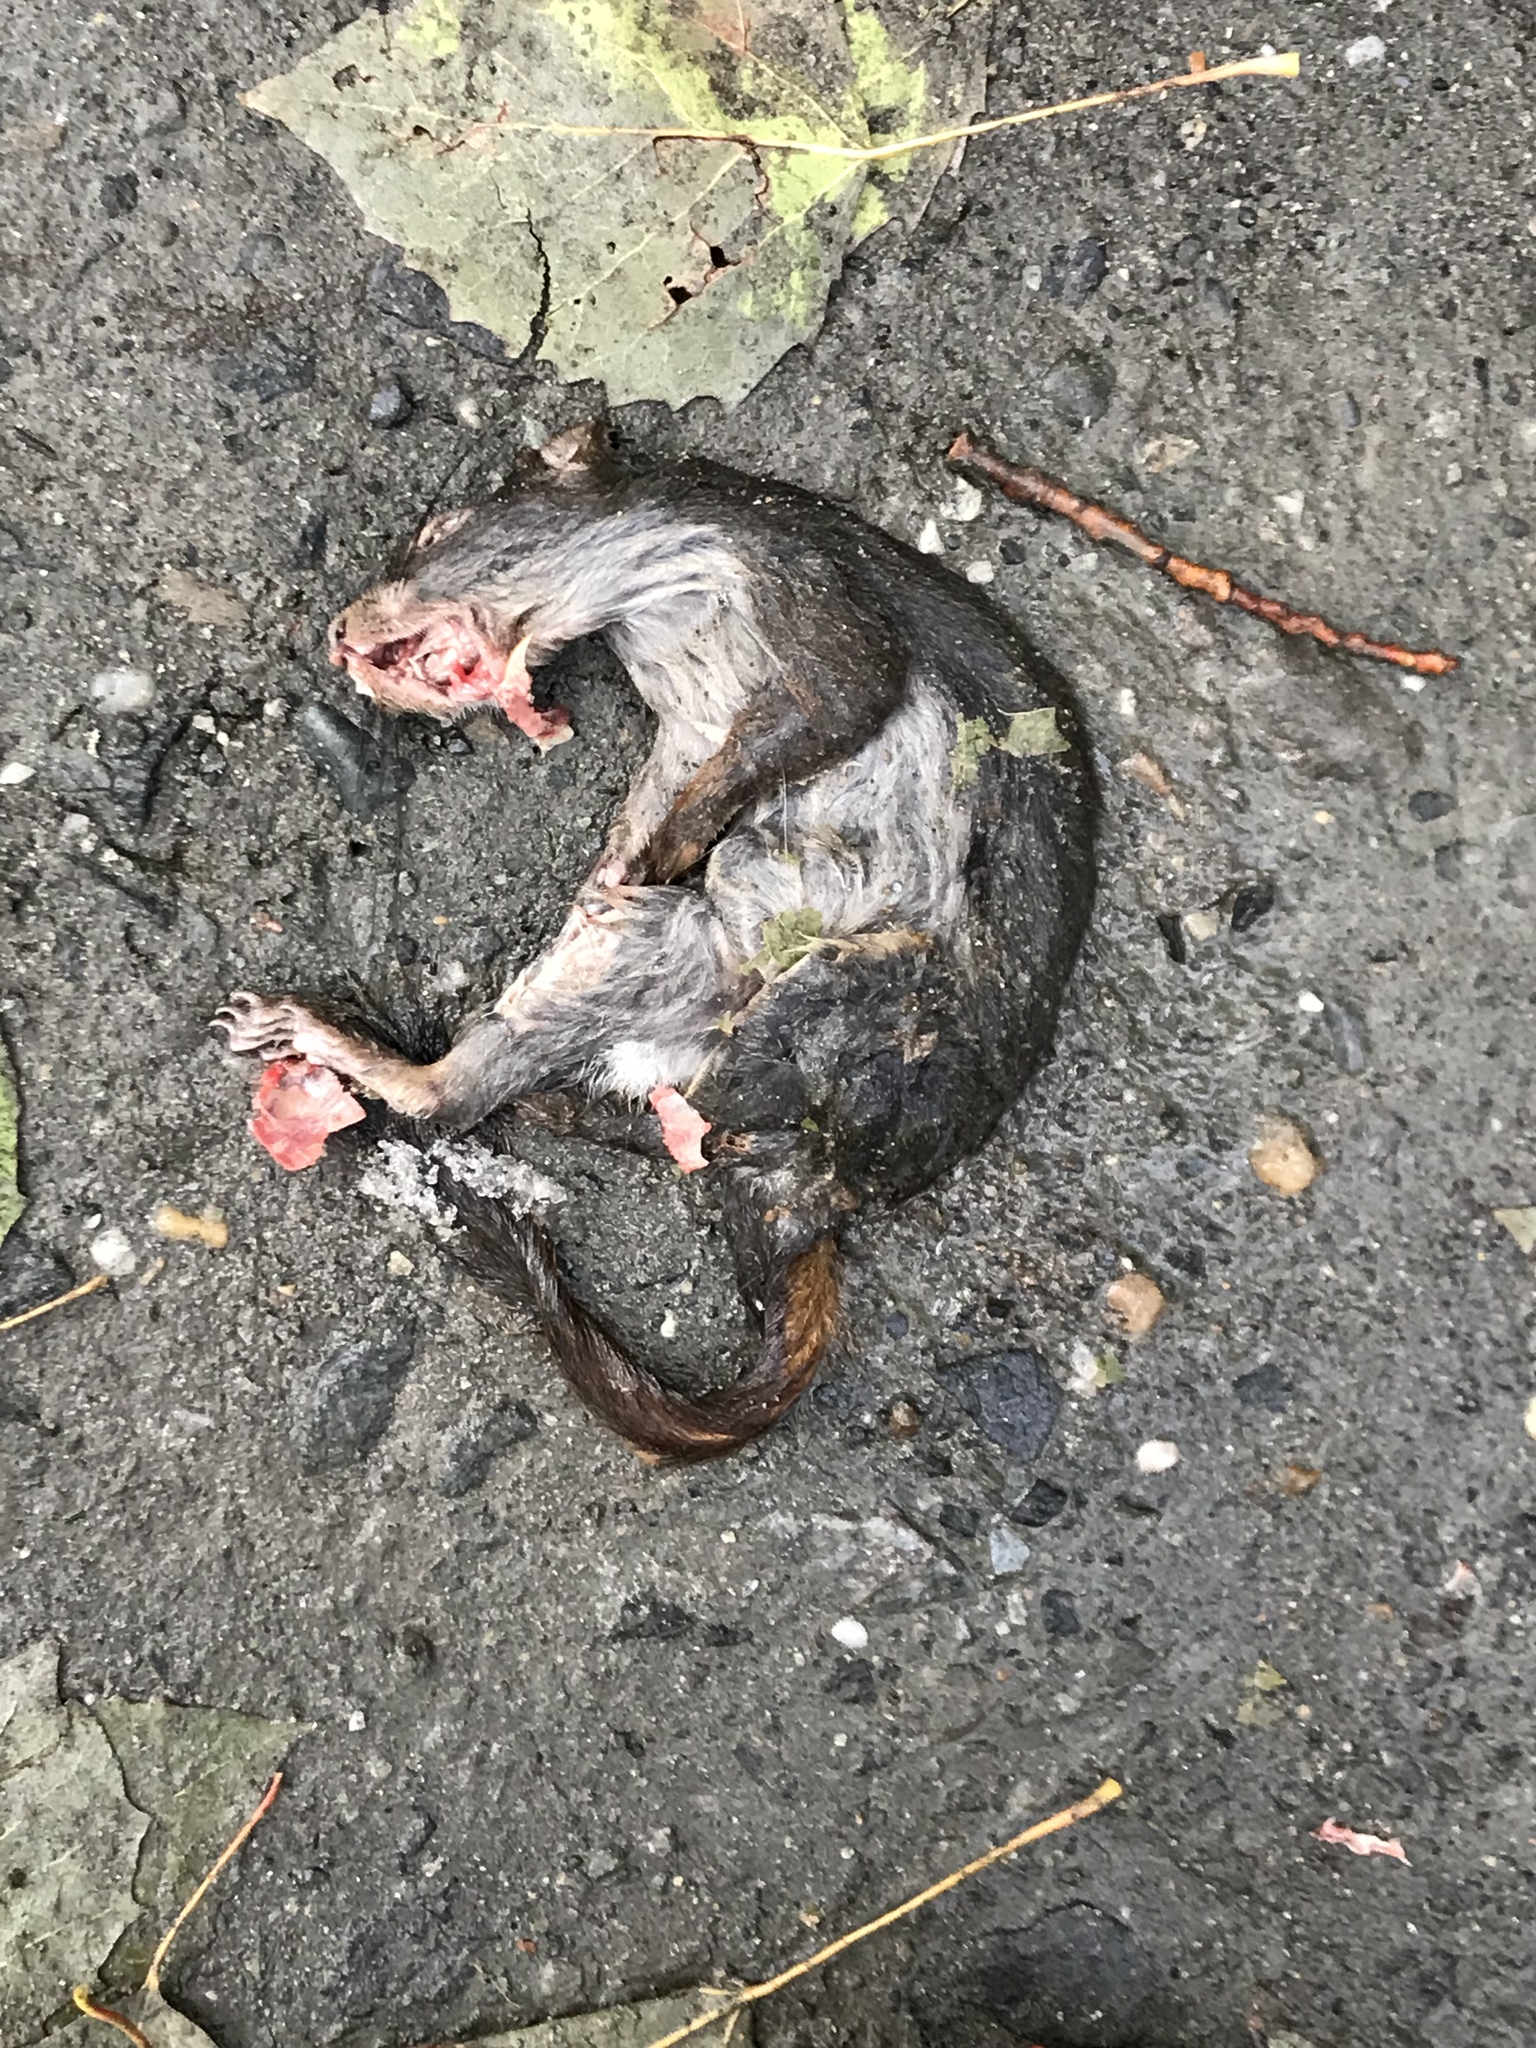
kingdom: Animalia
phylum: Chordata
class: Mammalia
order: Rodentia
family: Sciuridae
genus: Sciurus
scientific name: Sciurus carolinensis
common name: Eastern gray squirrel
